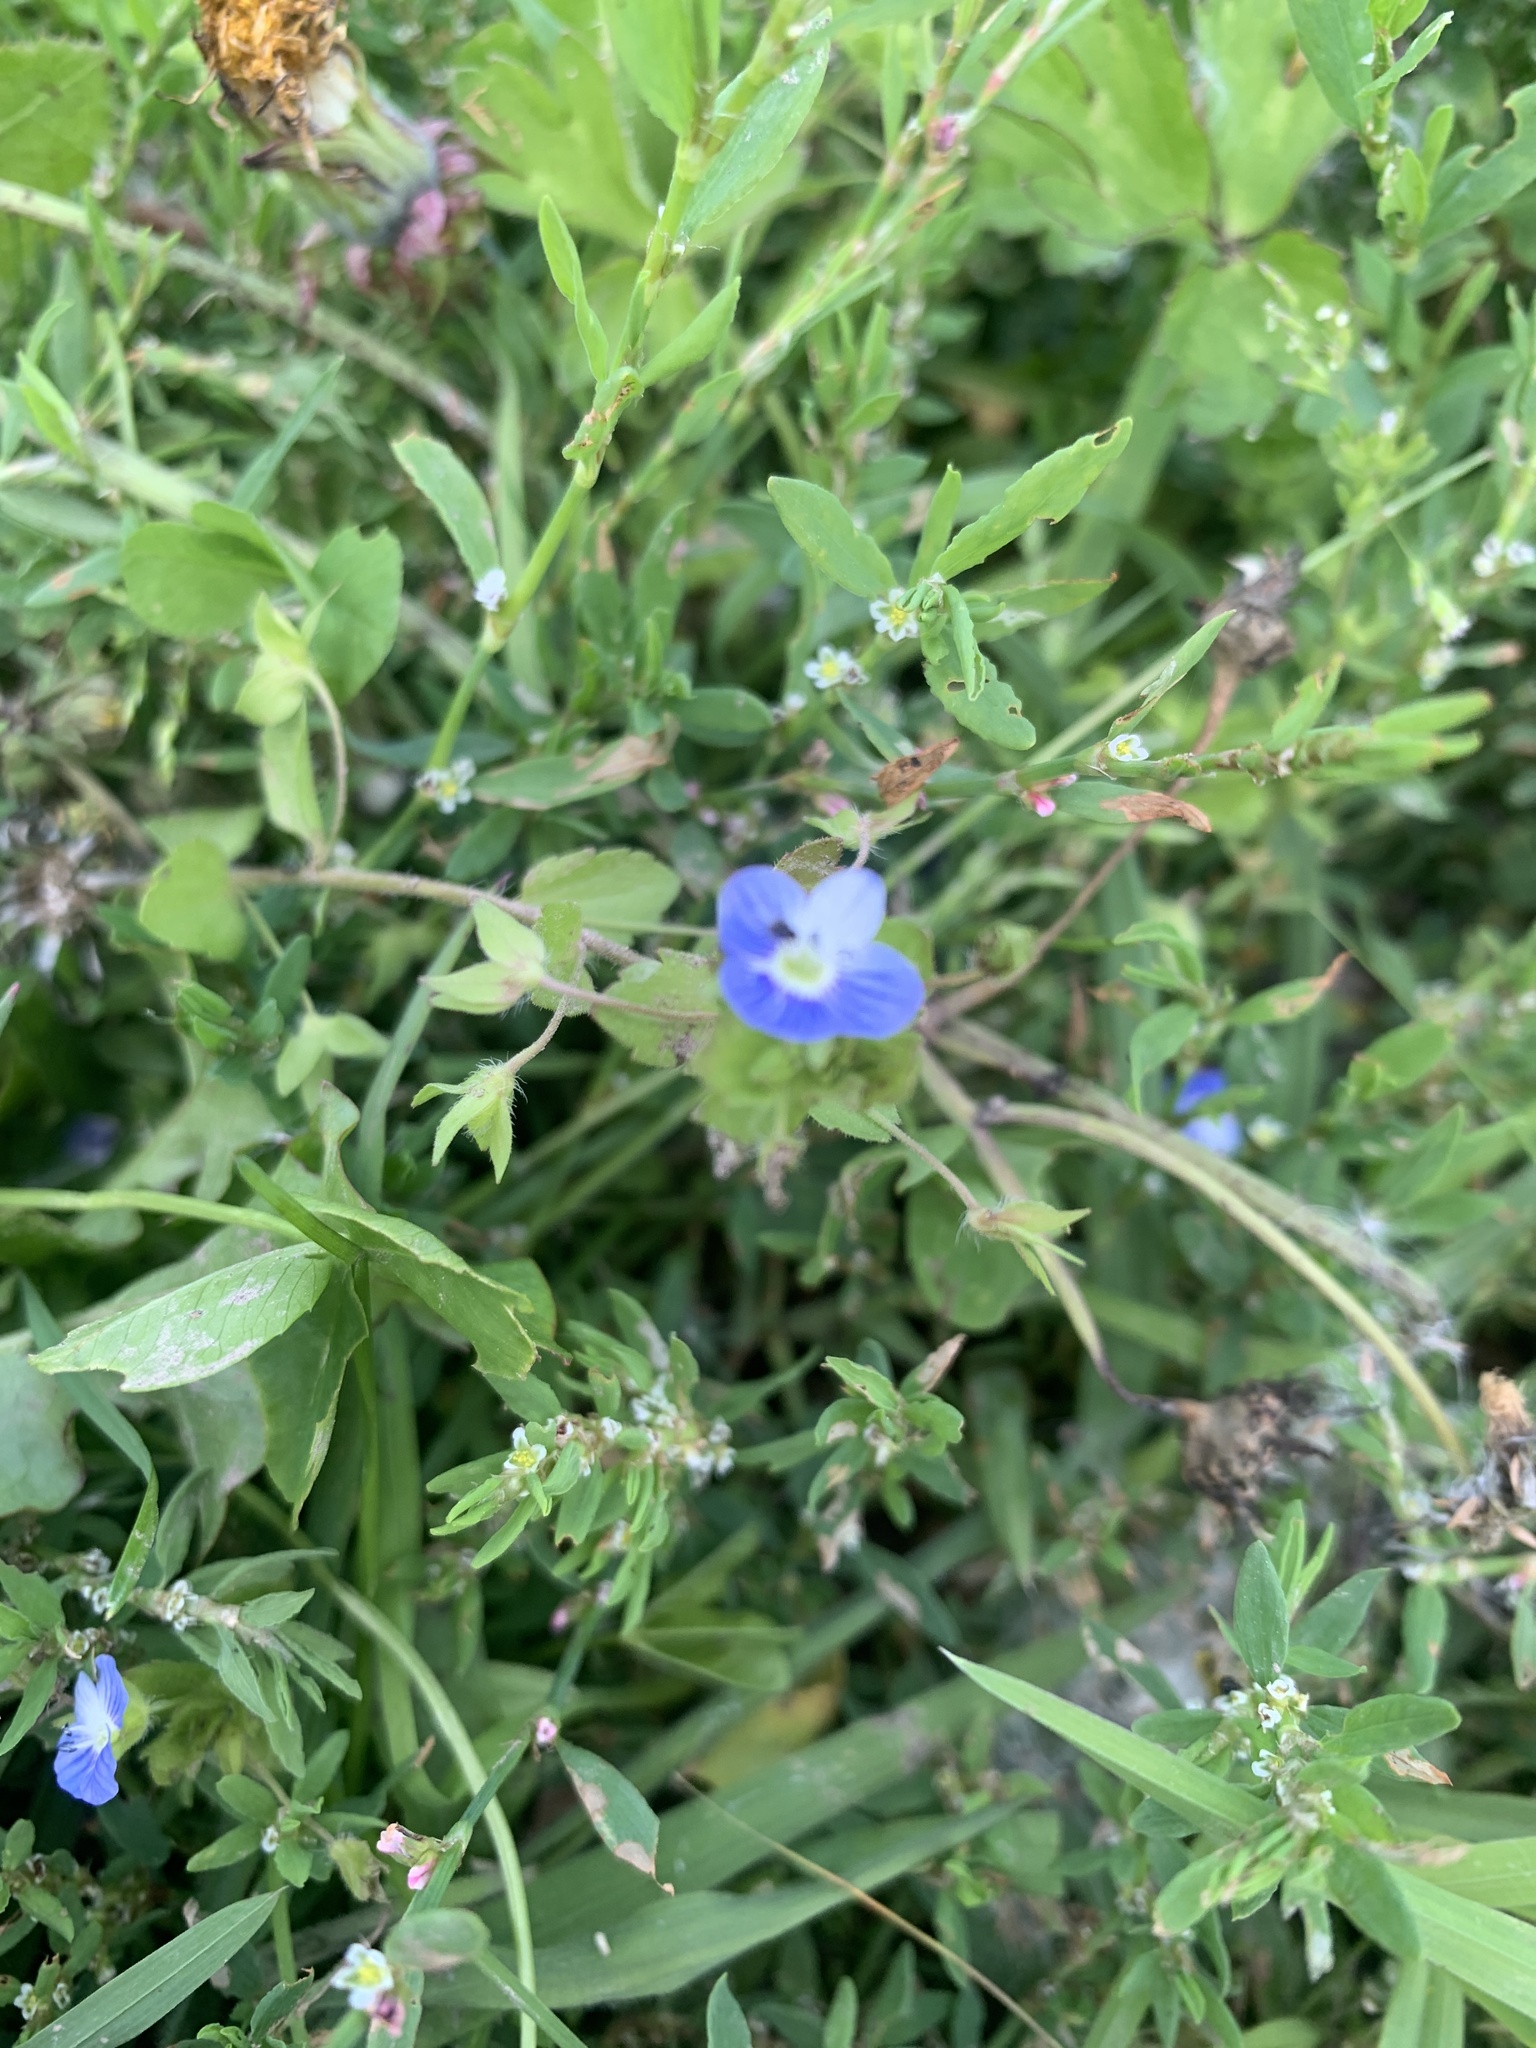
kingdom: Plantae
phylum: Tracheophyta
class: Magnoliopsida
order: Lamiales
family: Plantaginaceae
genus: Veronica
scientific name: Veronica persica
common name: Common field-speedwell
